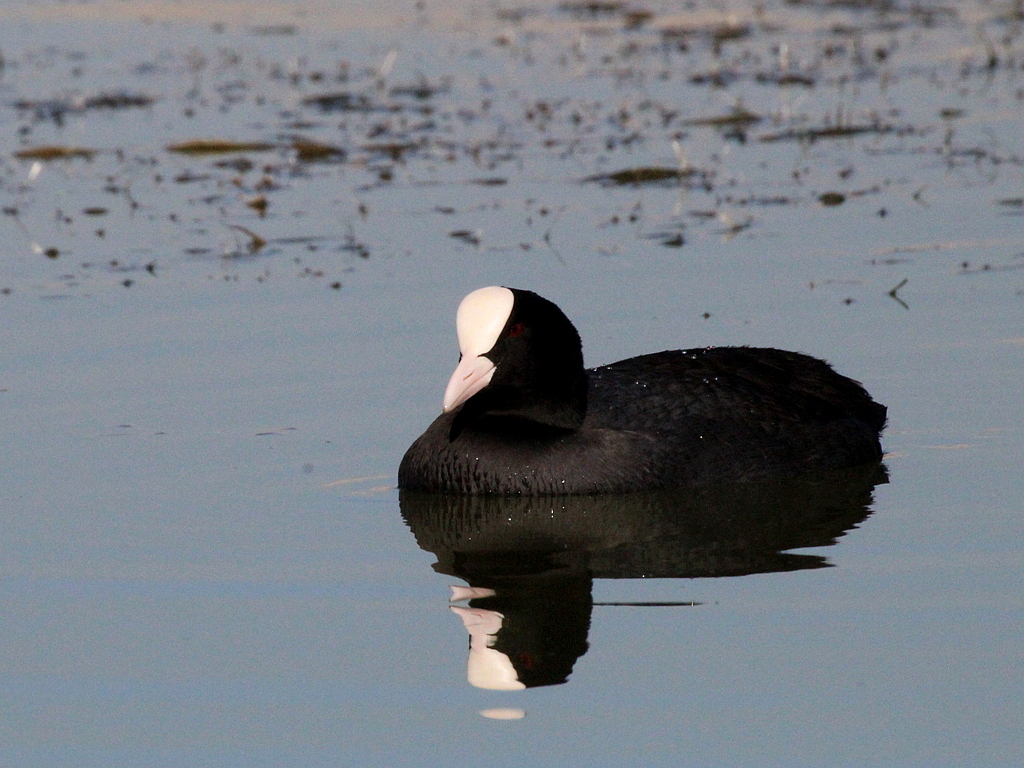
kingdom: Animalia
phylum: Chordata
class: Aves
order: Gruiformes
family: Rallidae
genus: Fulica
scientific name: Fulica atra
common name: Eurasian coot
